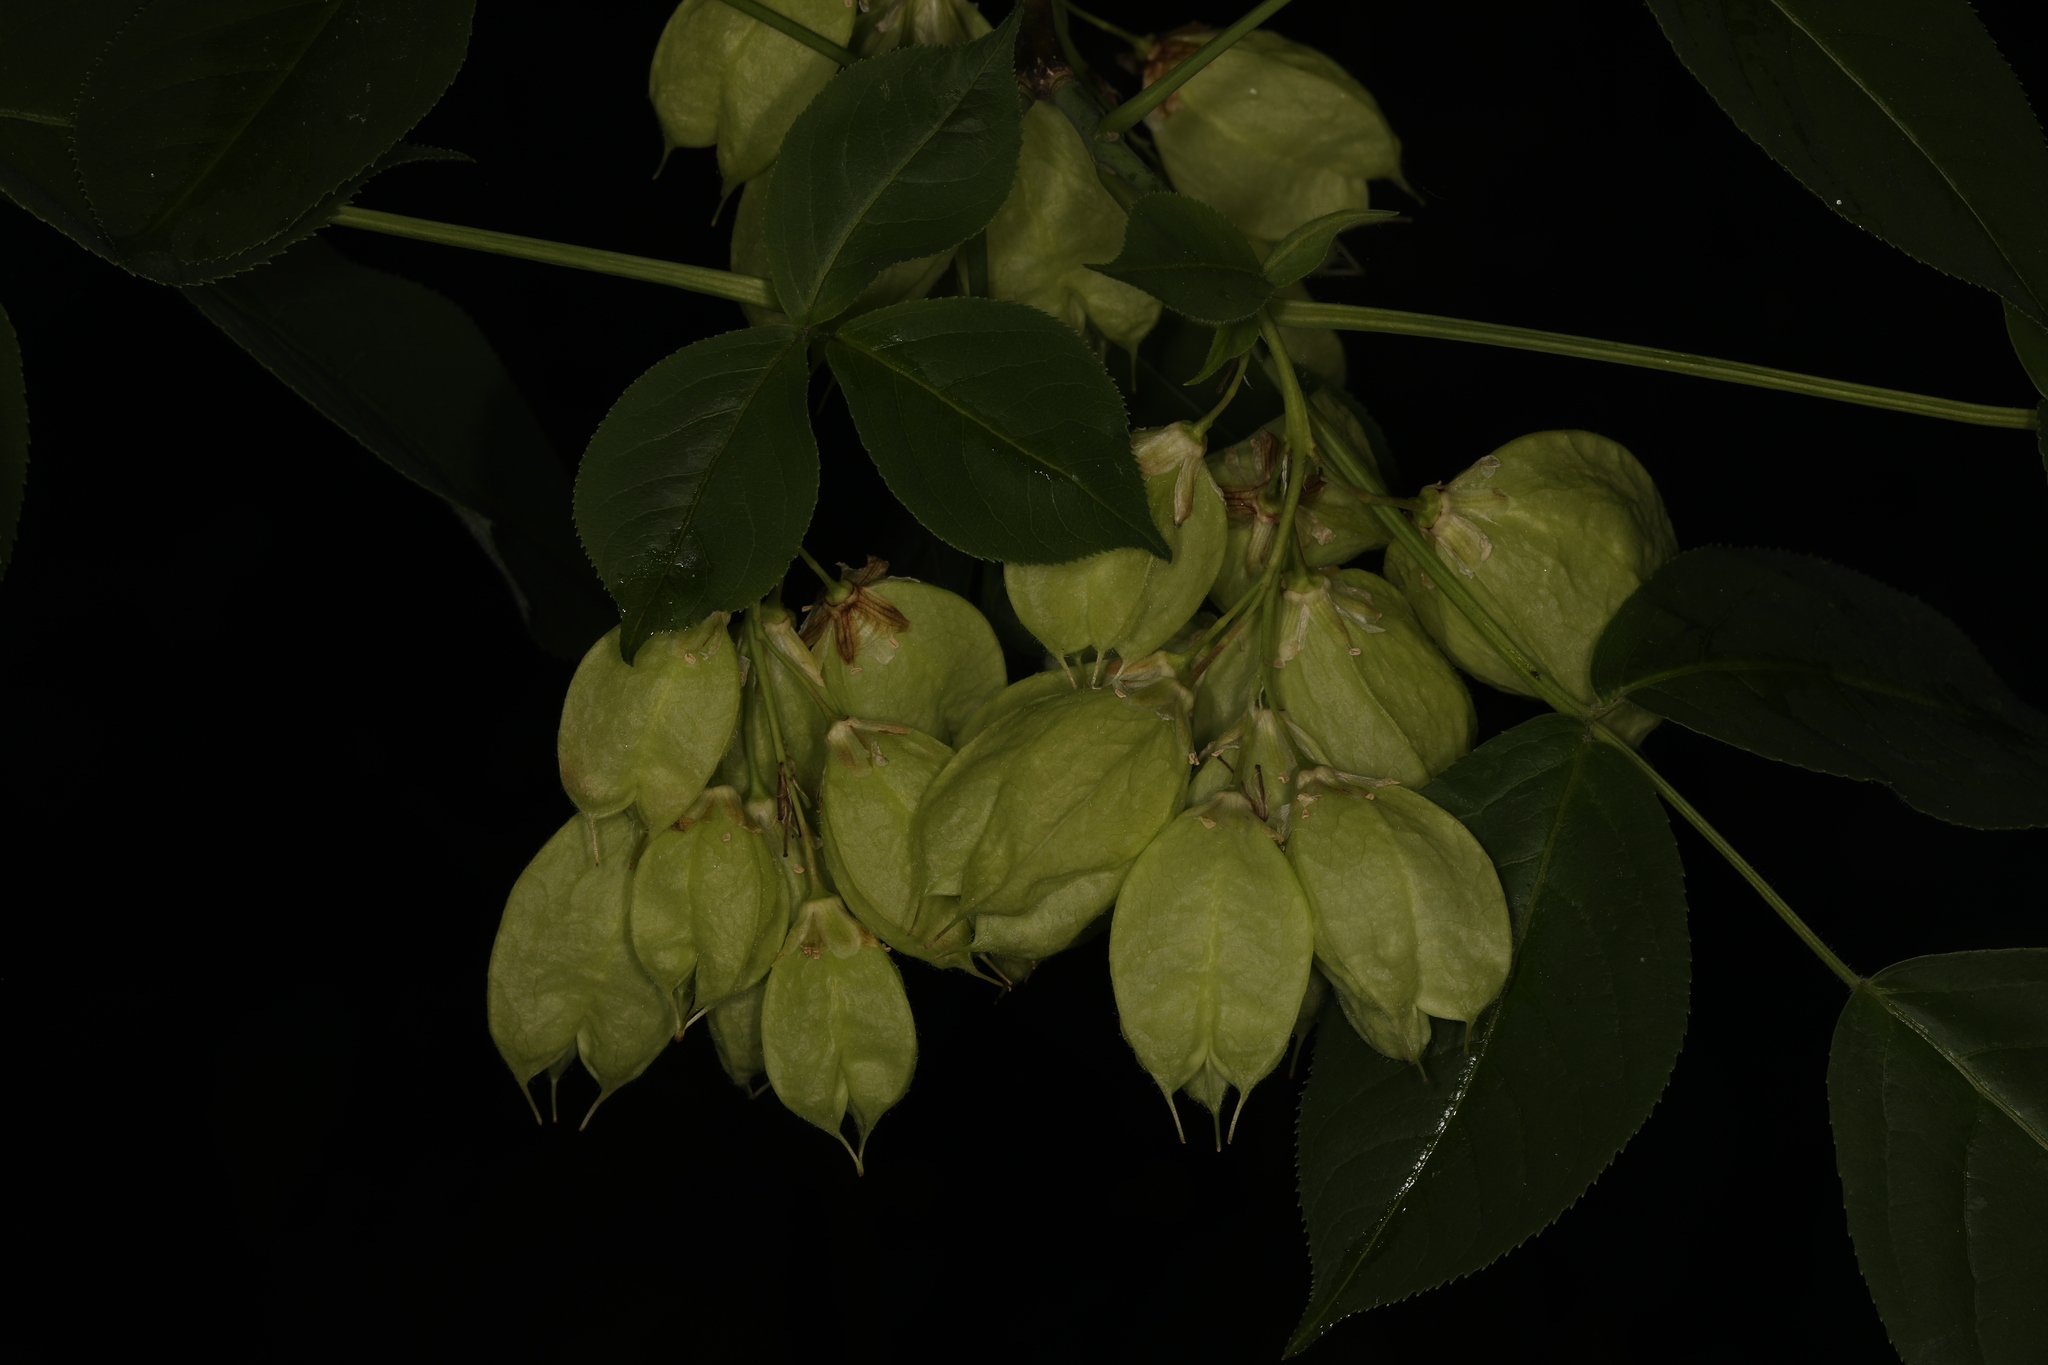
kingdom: Plantae
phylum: Tracheophyta
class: Magnoliopsida
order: Crossosomatales
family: Staphyleaceae
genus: Staphylea
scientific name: Staphylea trifolia
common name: American bladdernut
